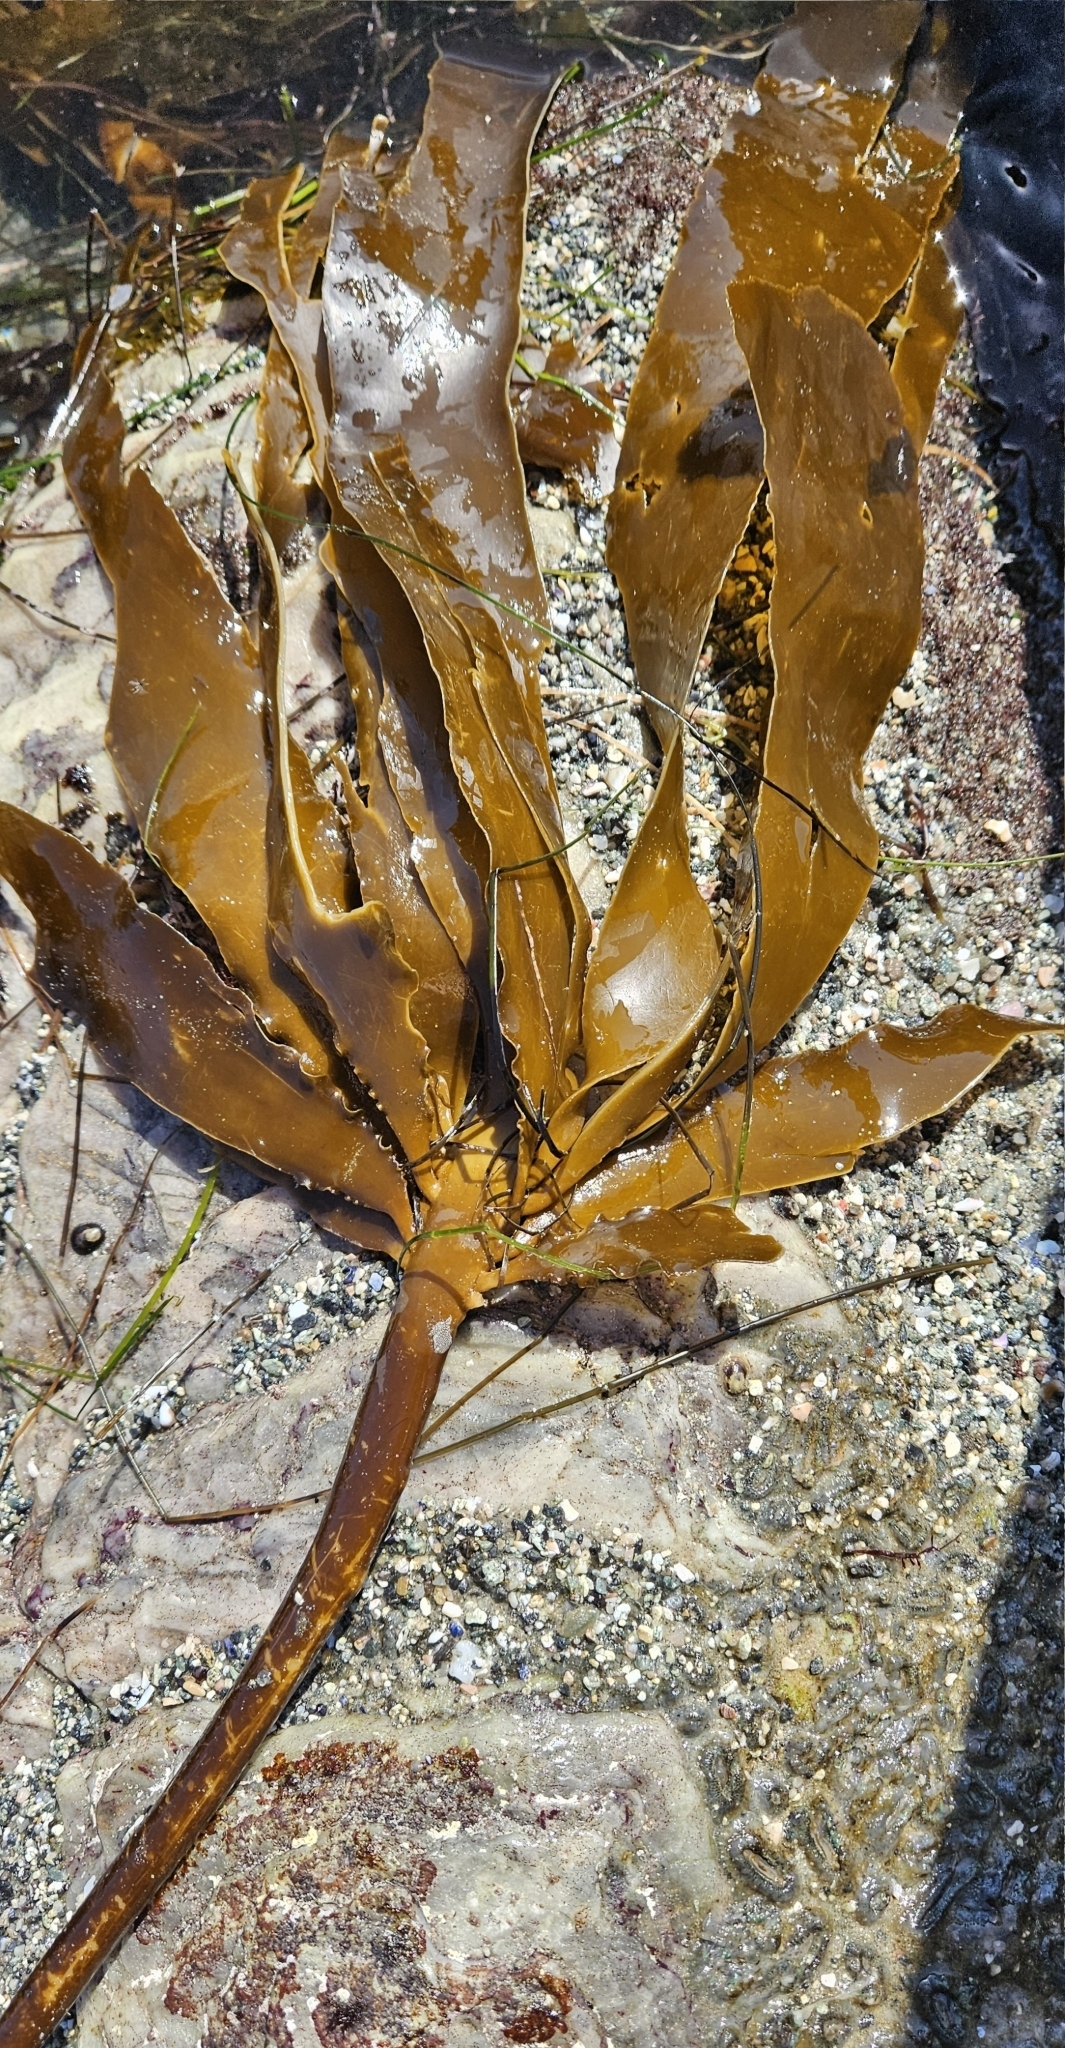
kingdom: Chromista
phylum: Ochrophyta
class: Phaeophyceae
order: Laminariales
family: Alariaceae
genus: Pterygophora
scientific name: Pterygophora californica
